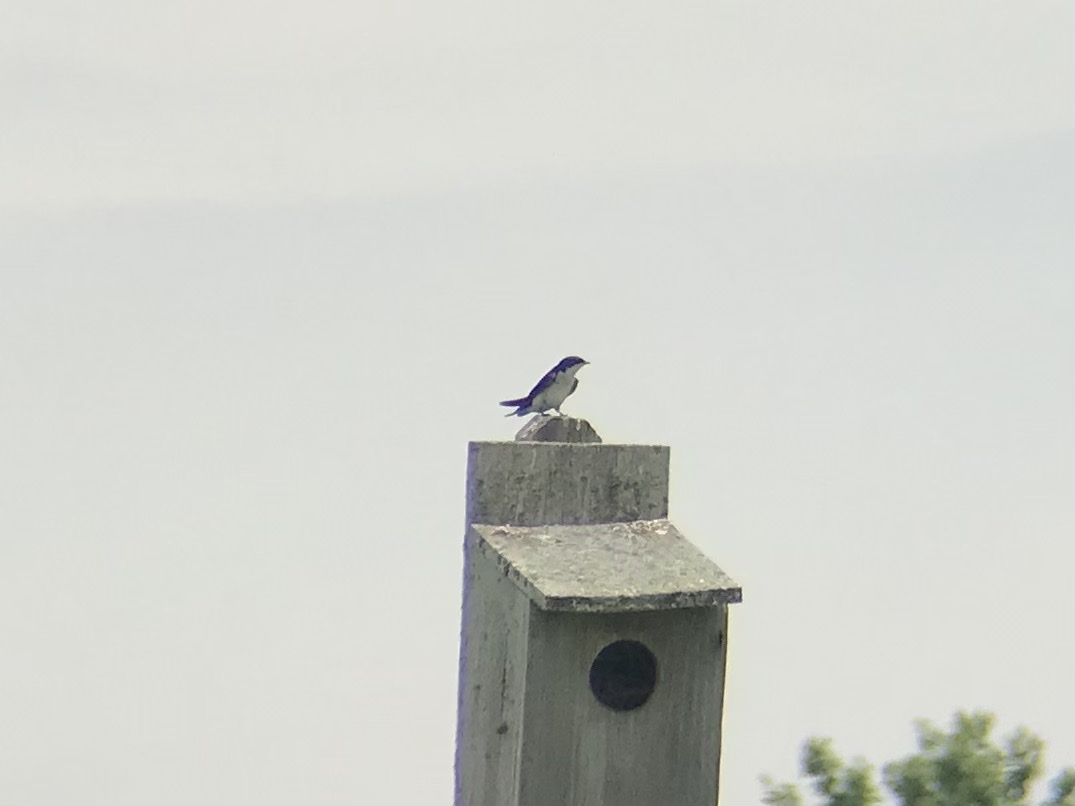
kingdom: Animalia
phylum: Chordata
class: Aves
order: Passeriformes
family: Hirundinidae
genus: Tachycineta
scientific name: Tachycineta bicolor
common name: Tree swallow
